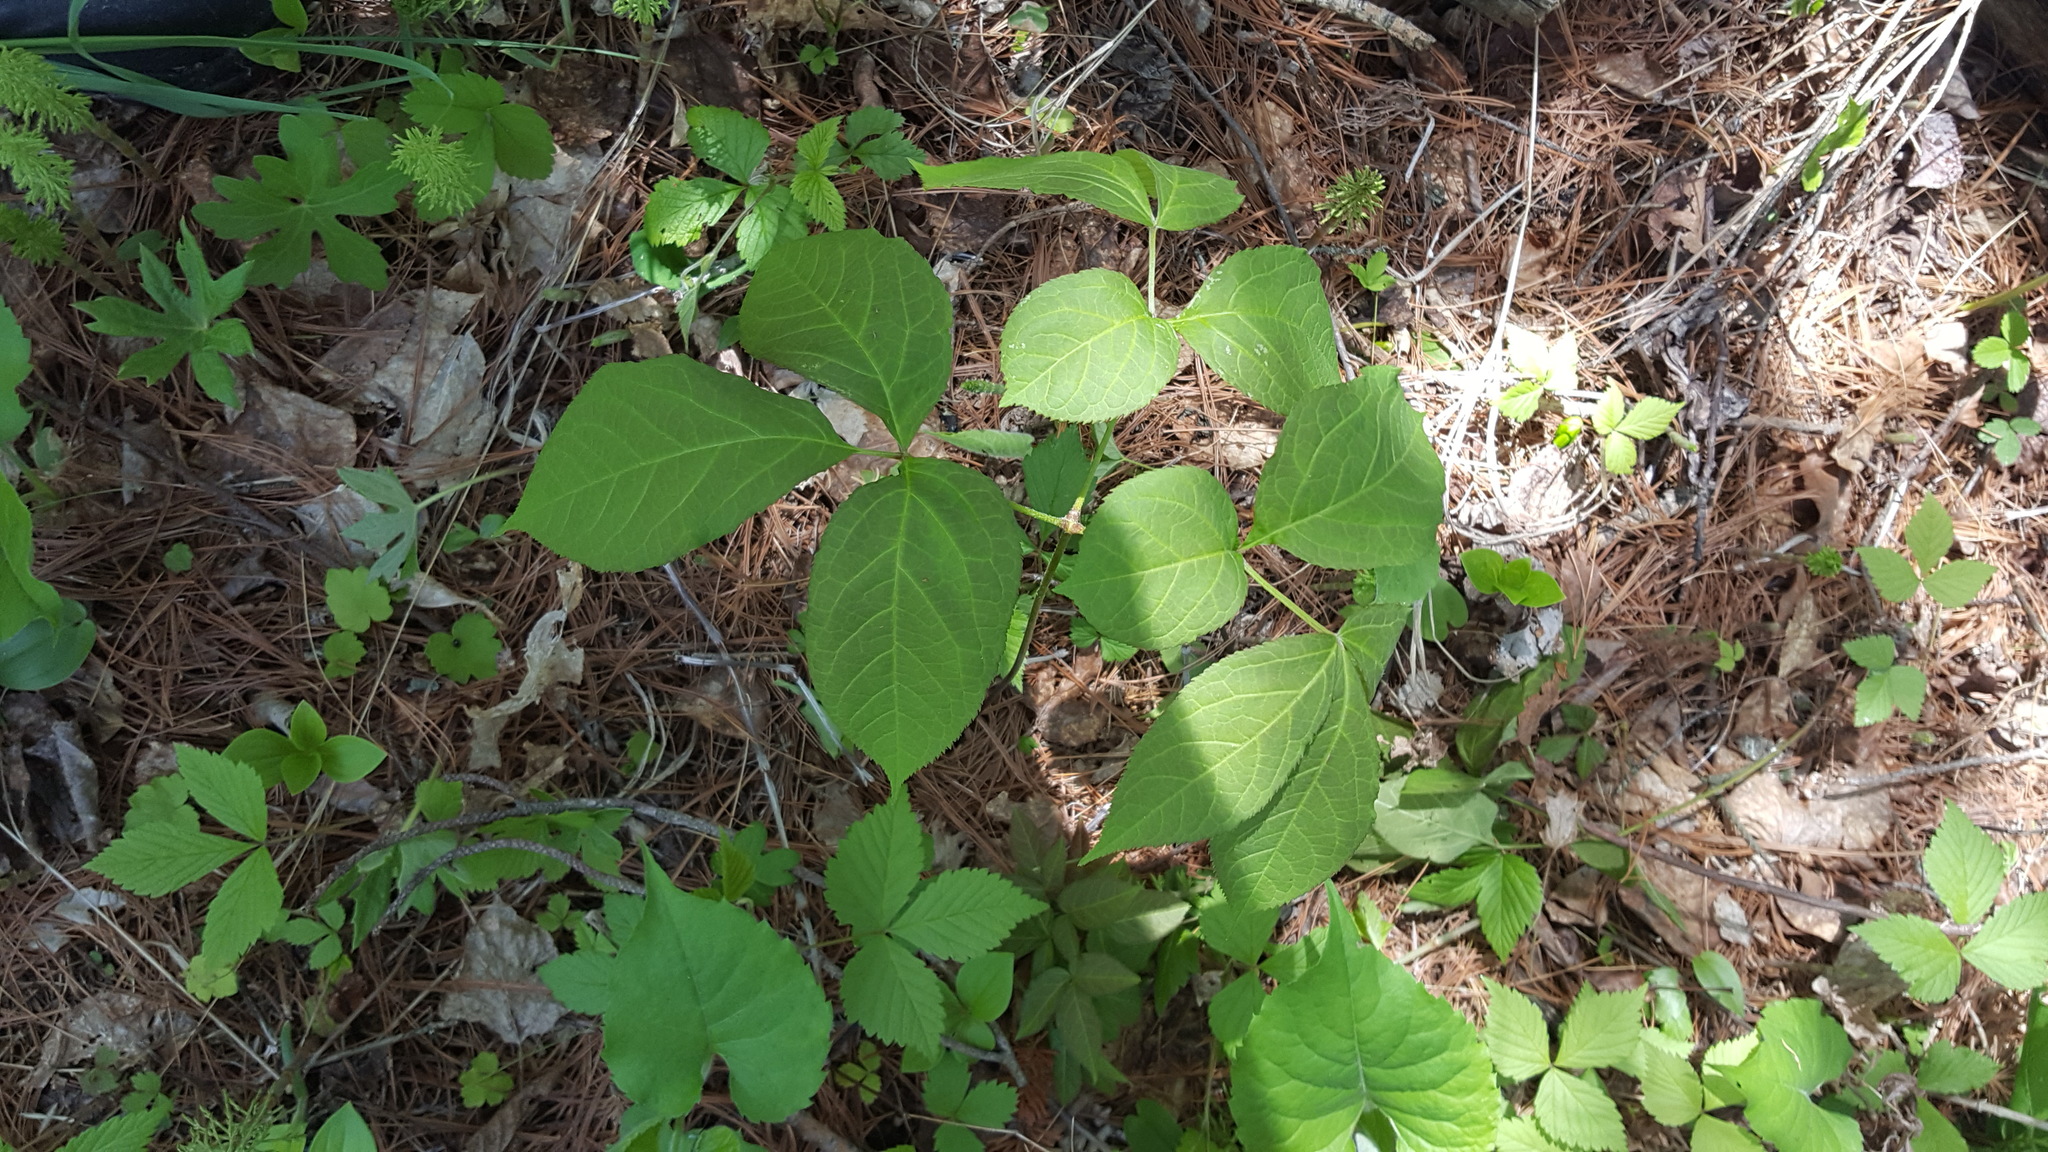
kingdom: Plantae
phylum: Tracheophyta
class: Magnoliopsida
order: Apiales
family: Araliaceae
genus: Aralia
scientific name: Aralia nudicaulis
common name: Wild sarsaparilla
